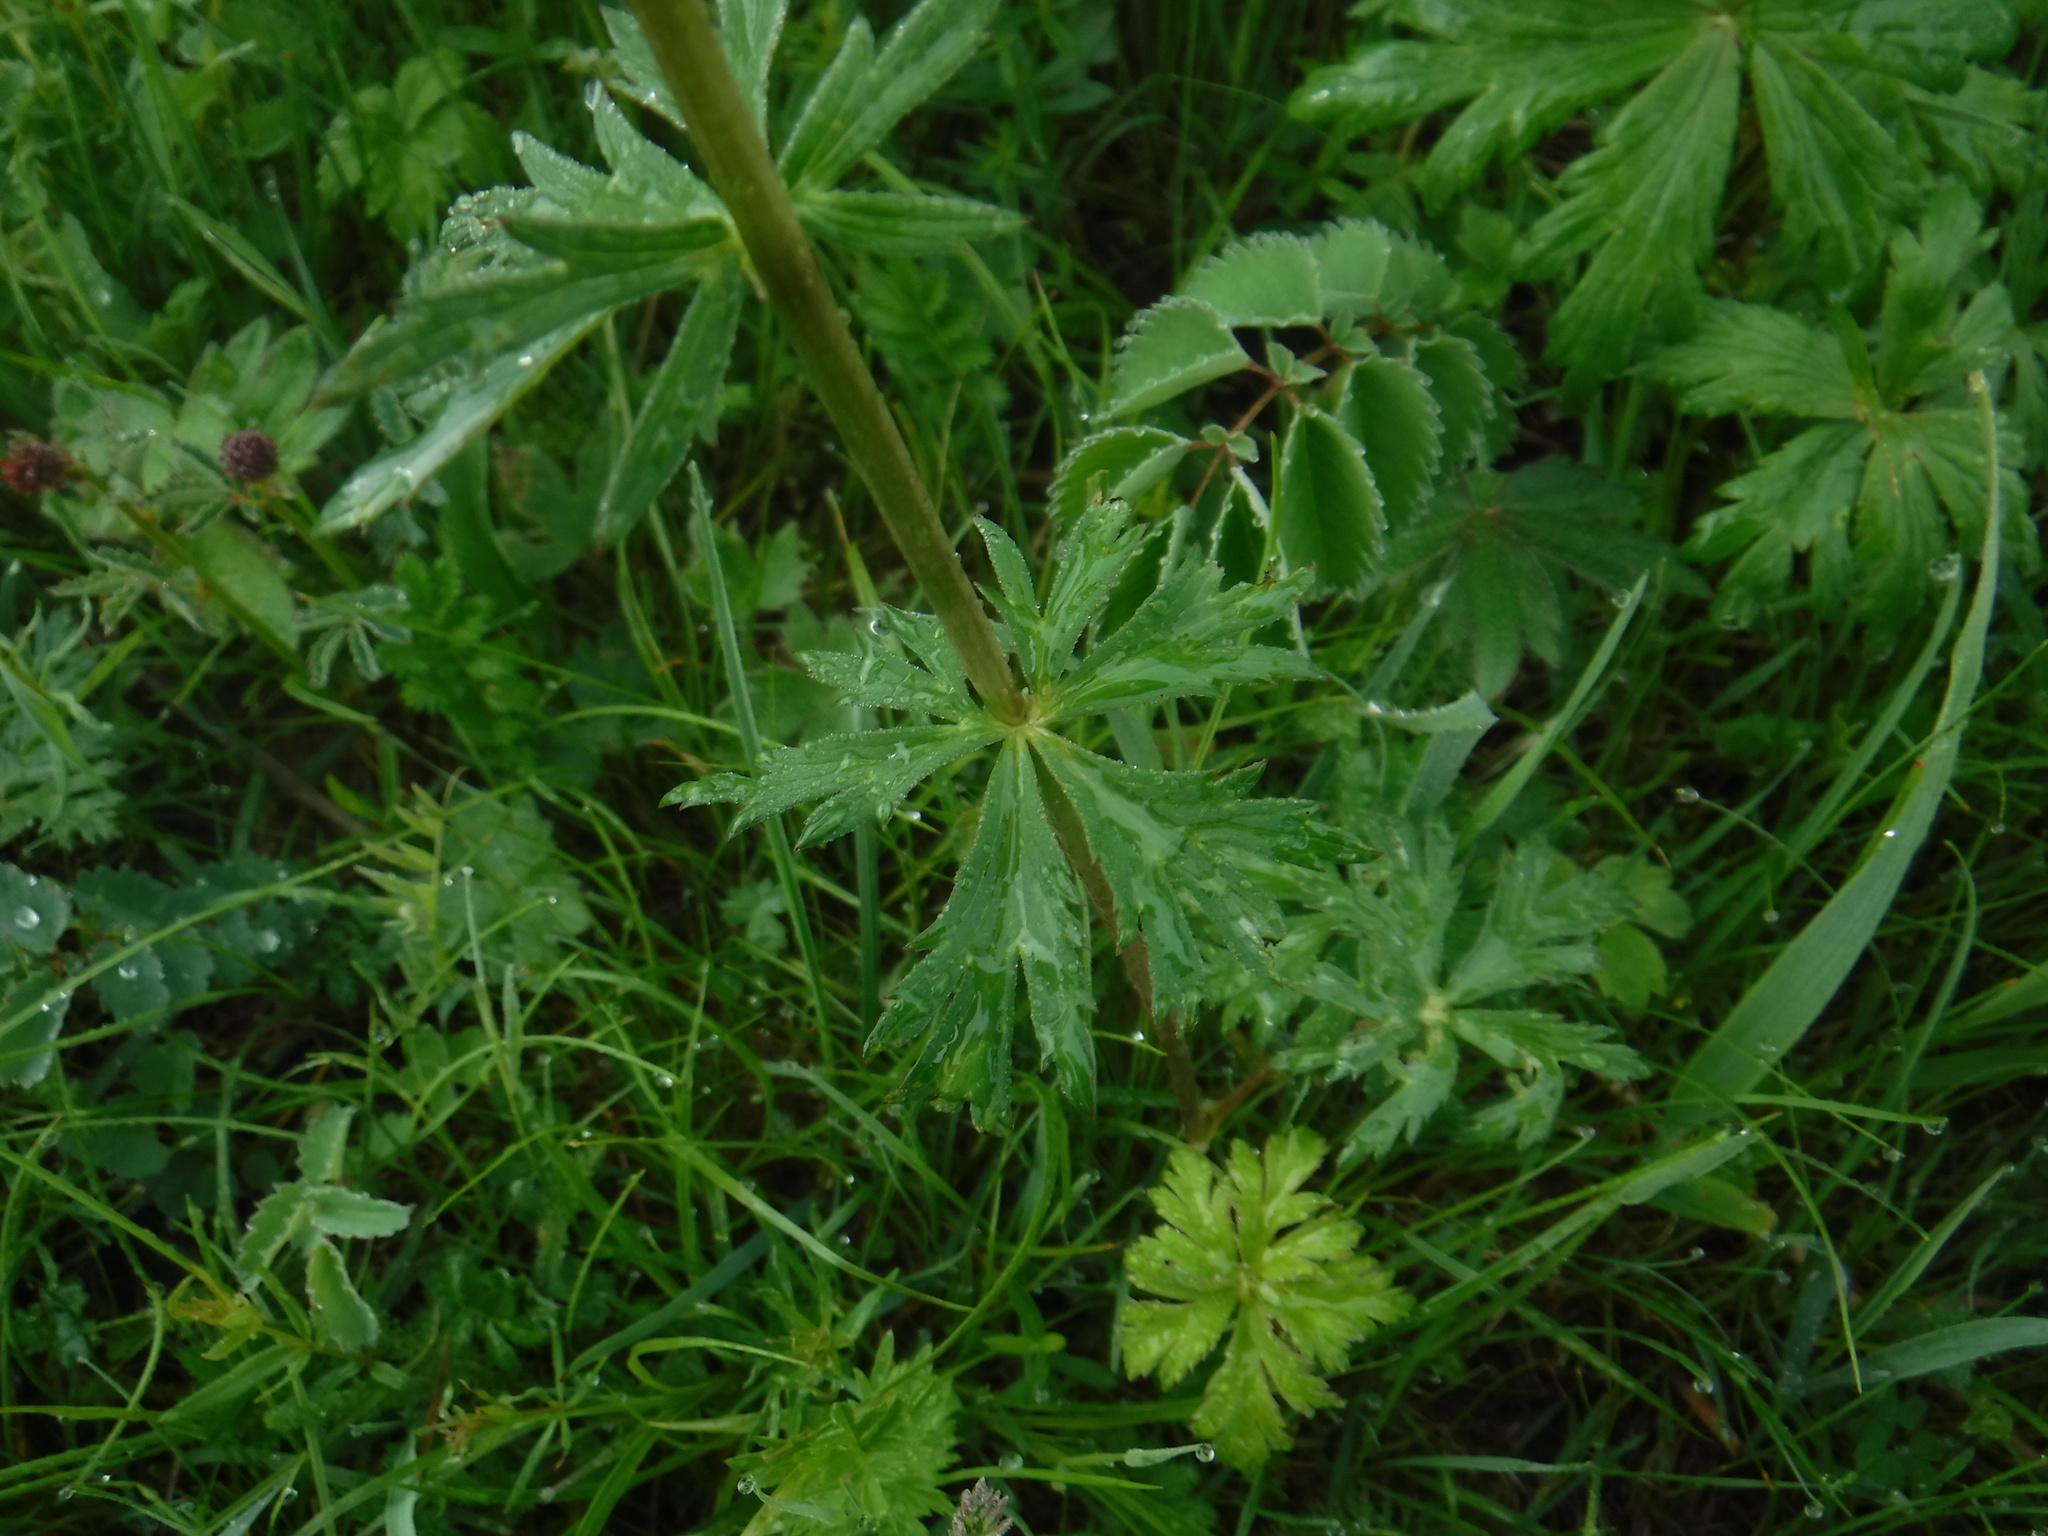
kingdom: Plantae
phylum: Tracheophyta
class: Magnoliopsida
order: Ranunculales
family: Ranunculaceae
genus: Trollius
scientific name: Trollius asiaticus
